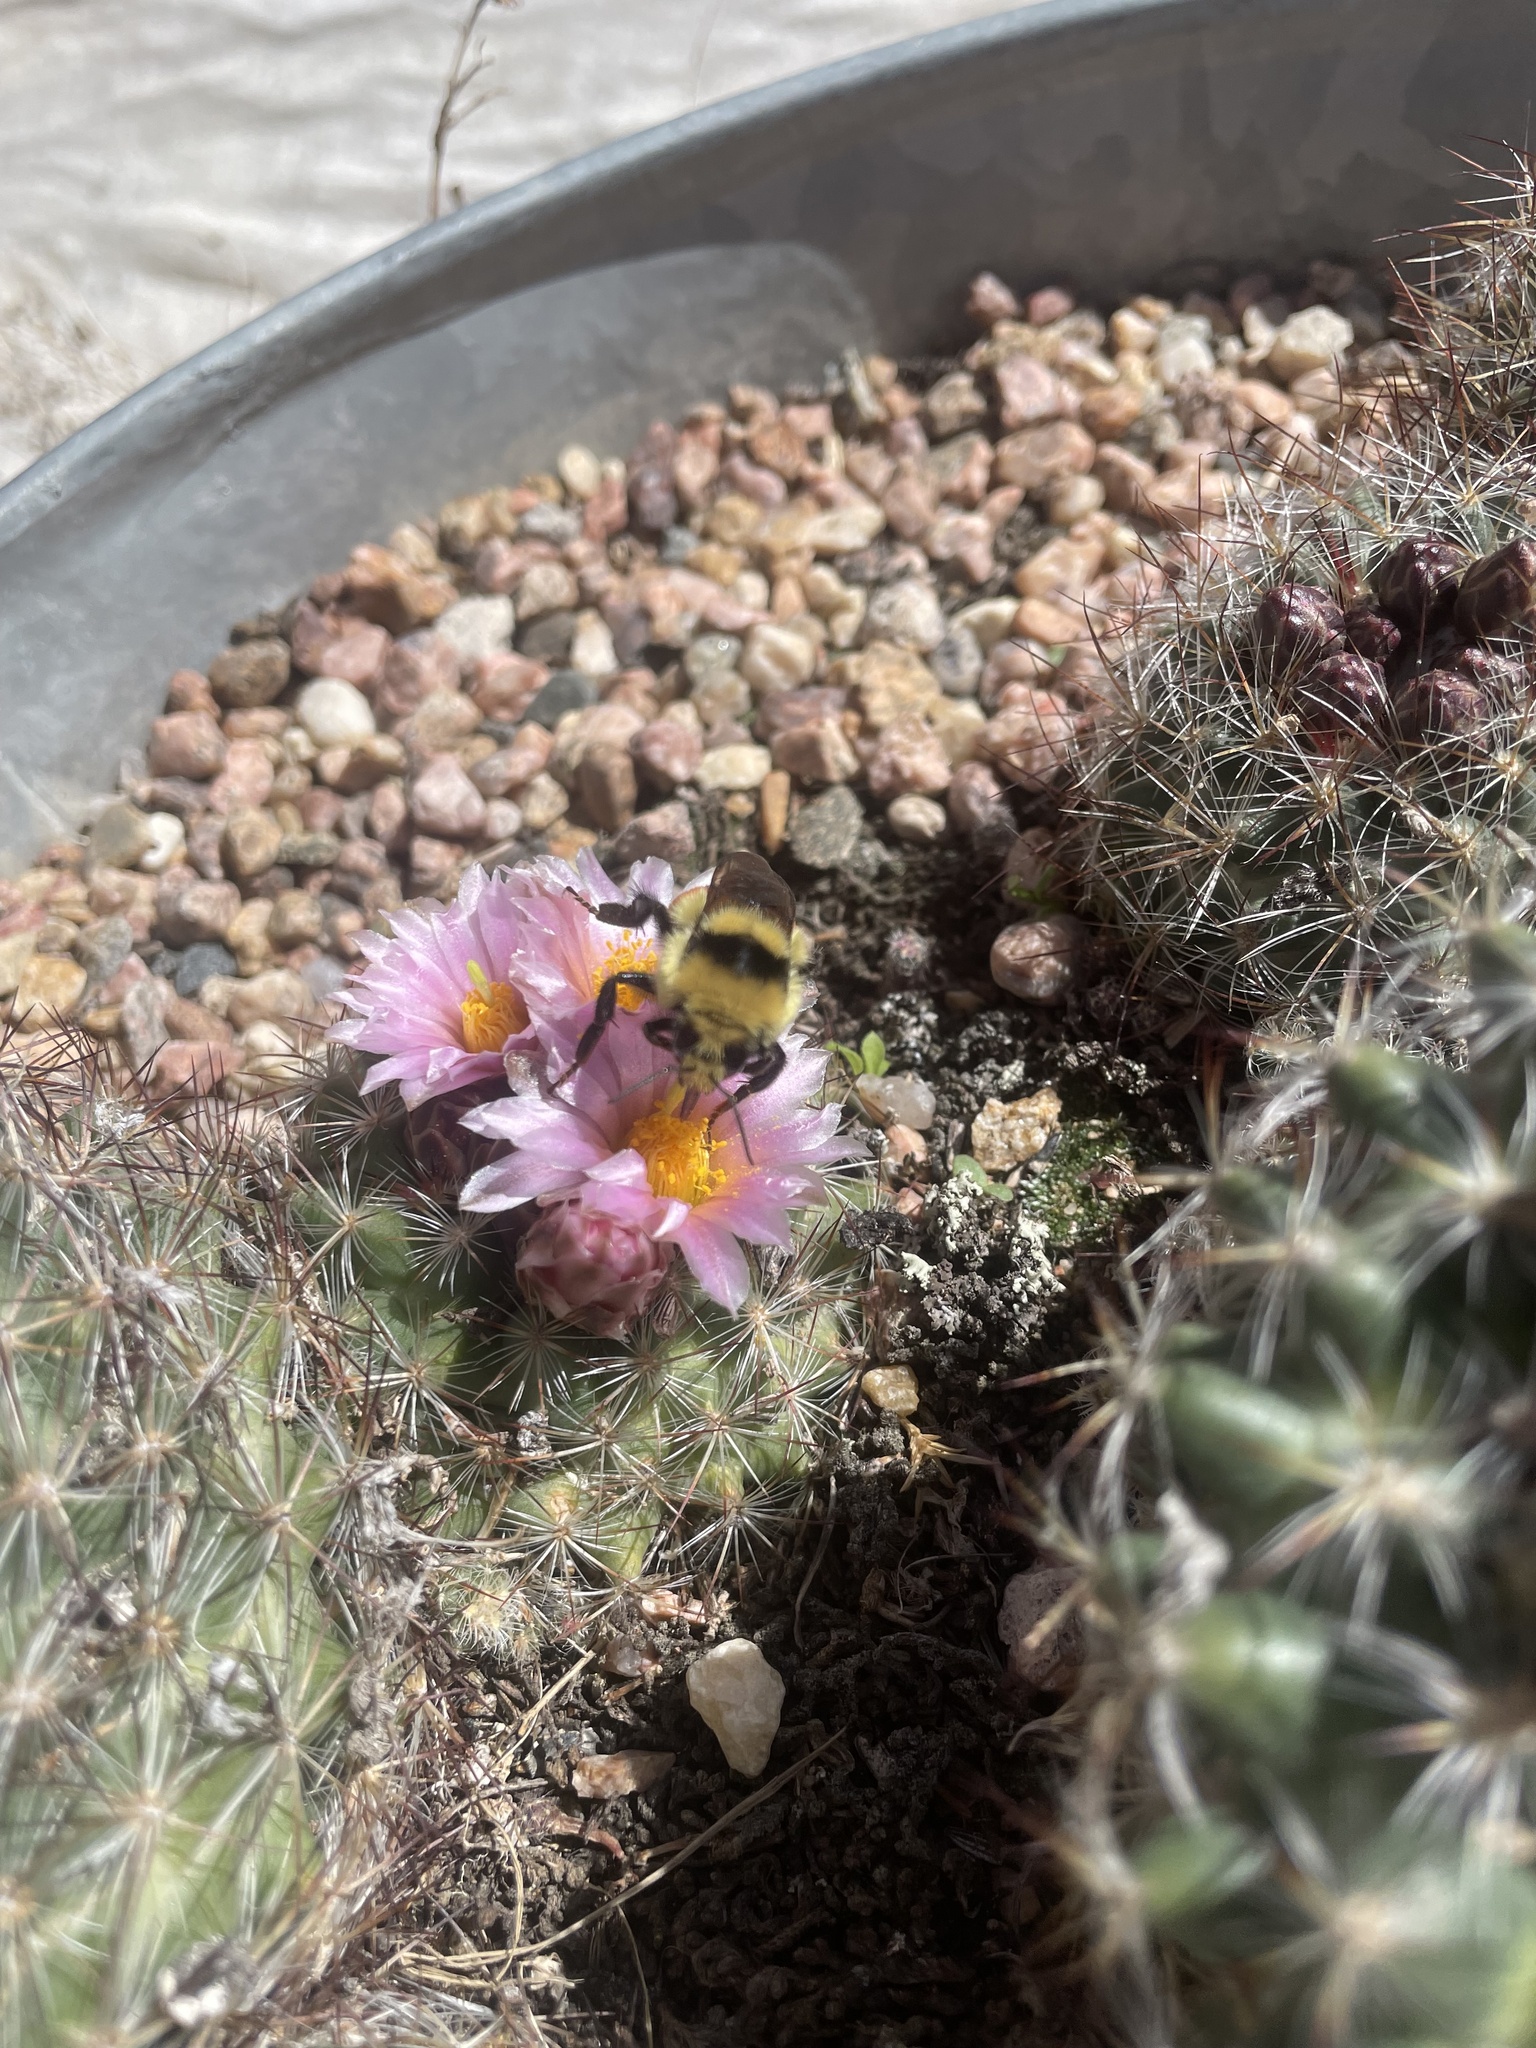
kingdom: Animalia
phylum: Arthropoda
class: Insecta
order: Hymenoptera
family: Apidae
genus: Bombus
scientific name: Bombus huntii
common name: Hunt bumble bee
